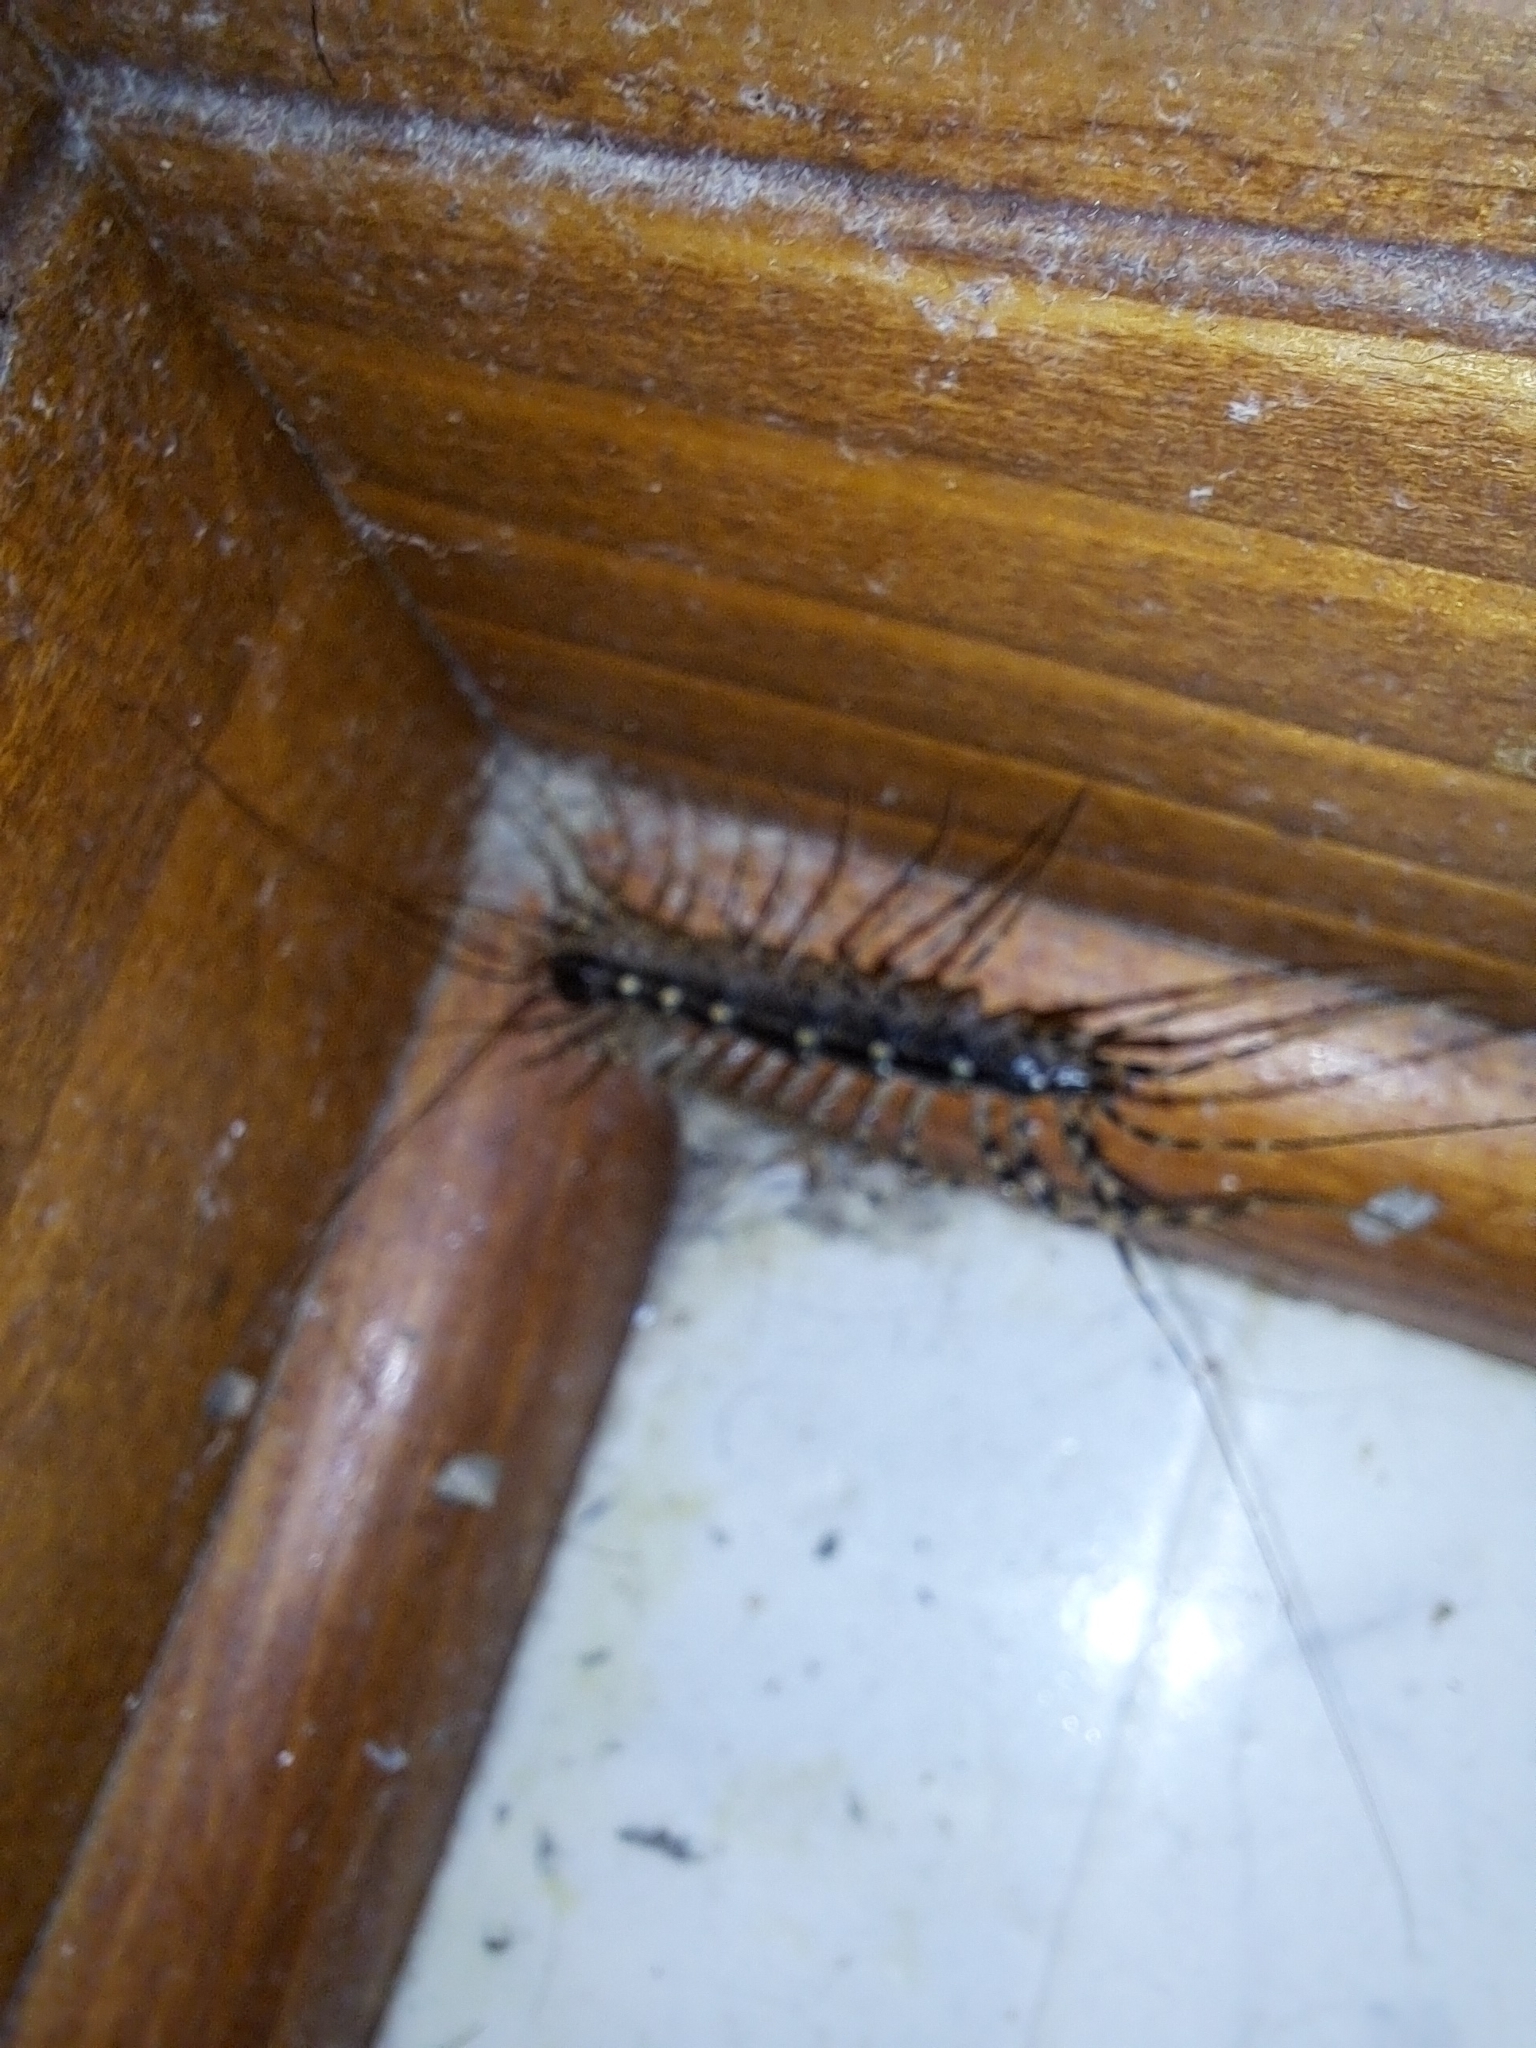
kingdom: Animalia
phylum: Arthropoda
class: Chilopoda
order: Scutigeromorpha
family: Scutigeridae
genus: Scutigera
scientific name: Scutigera coleoptrata
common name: House centipede
